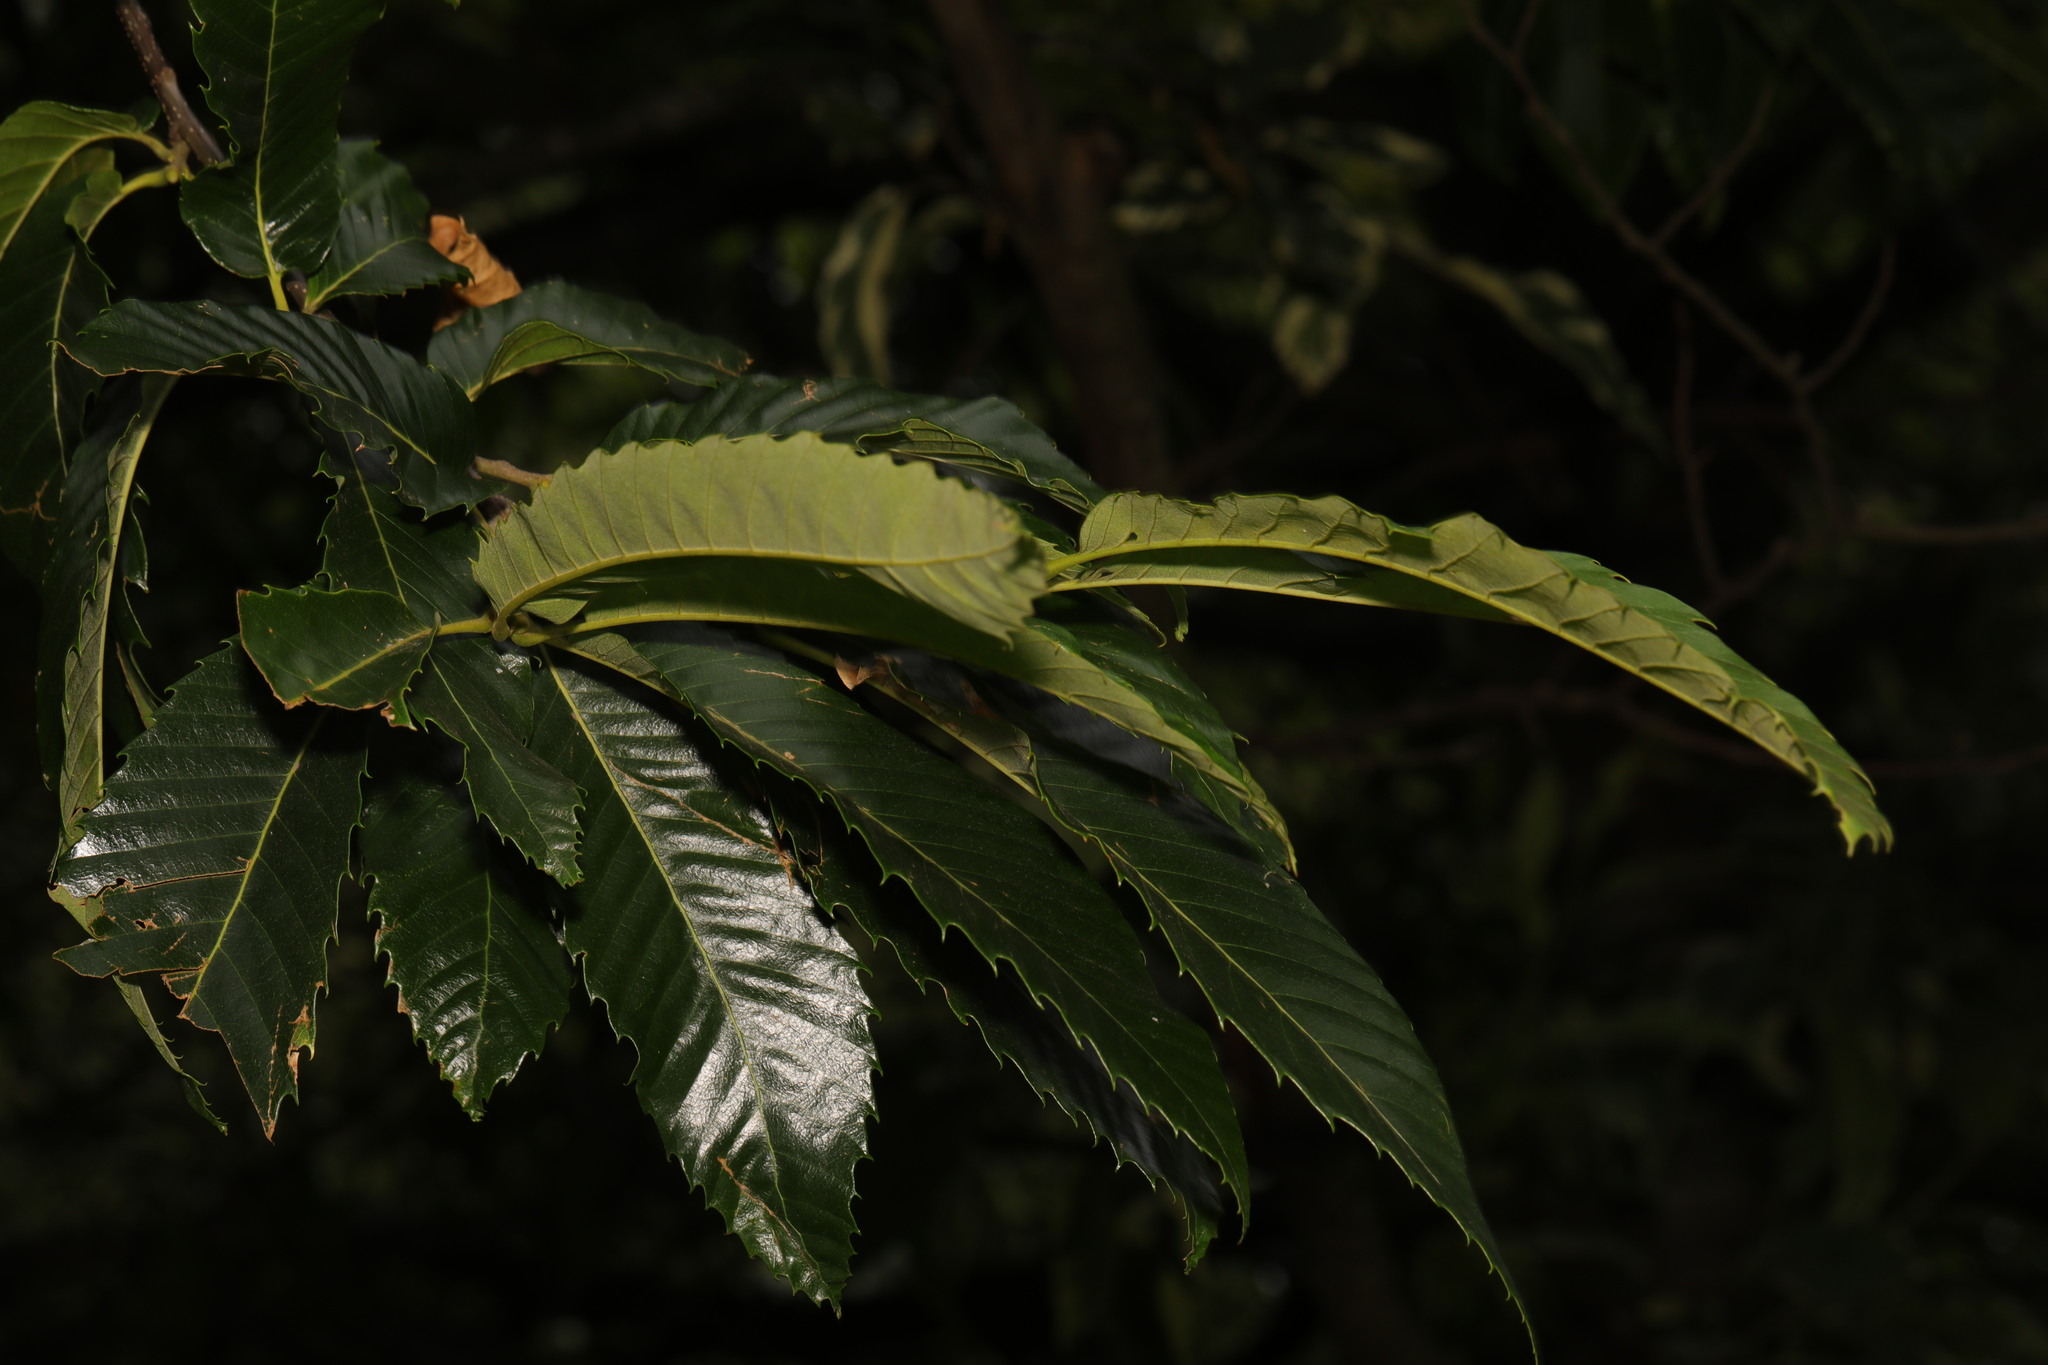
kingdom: Plantae
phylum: Tracheophyta
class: Magnoliopsida
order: Fagales
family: Fagaceae
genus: Castanea
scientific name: Castanea sativa
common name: Sweet chestnut
